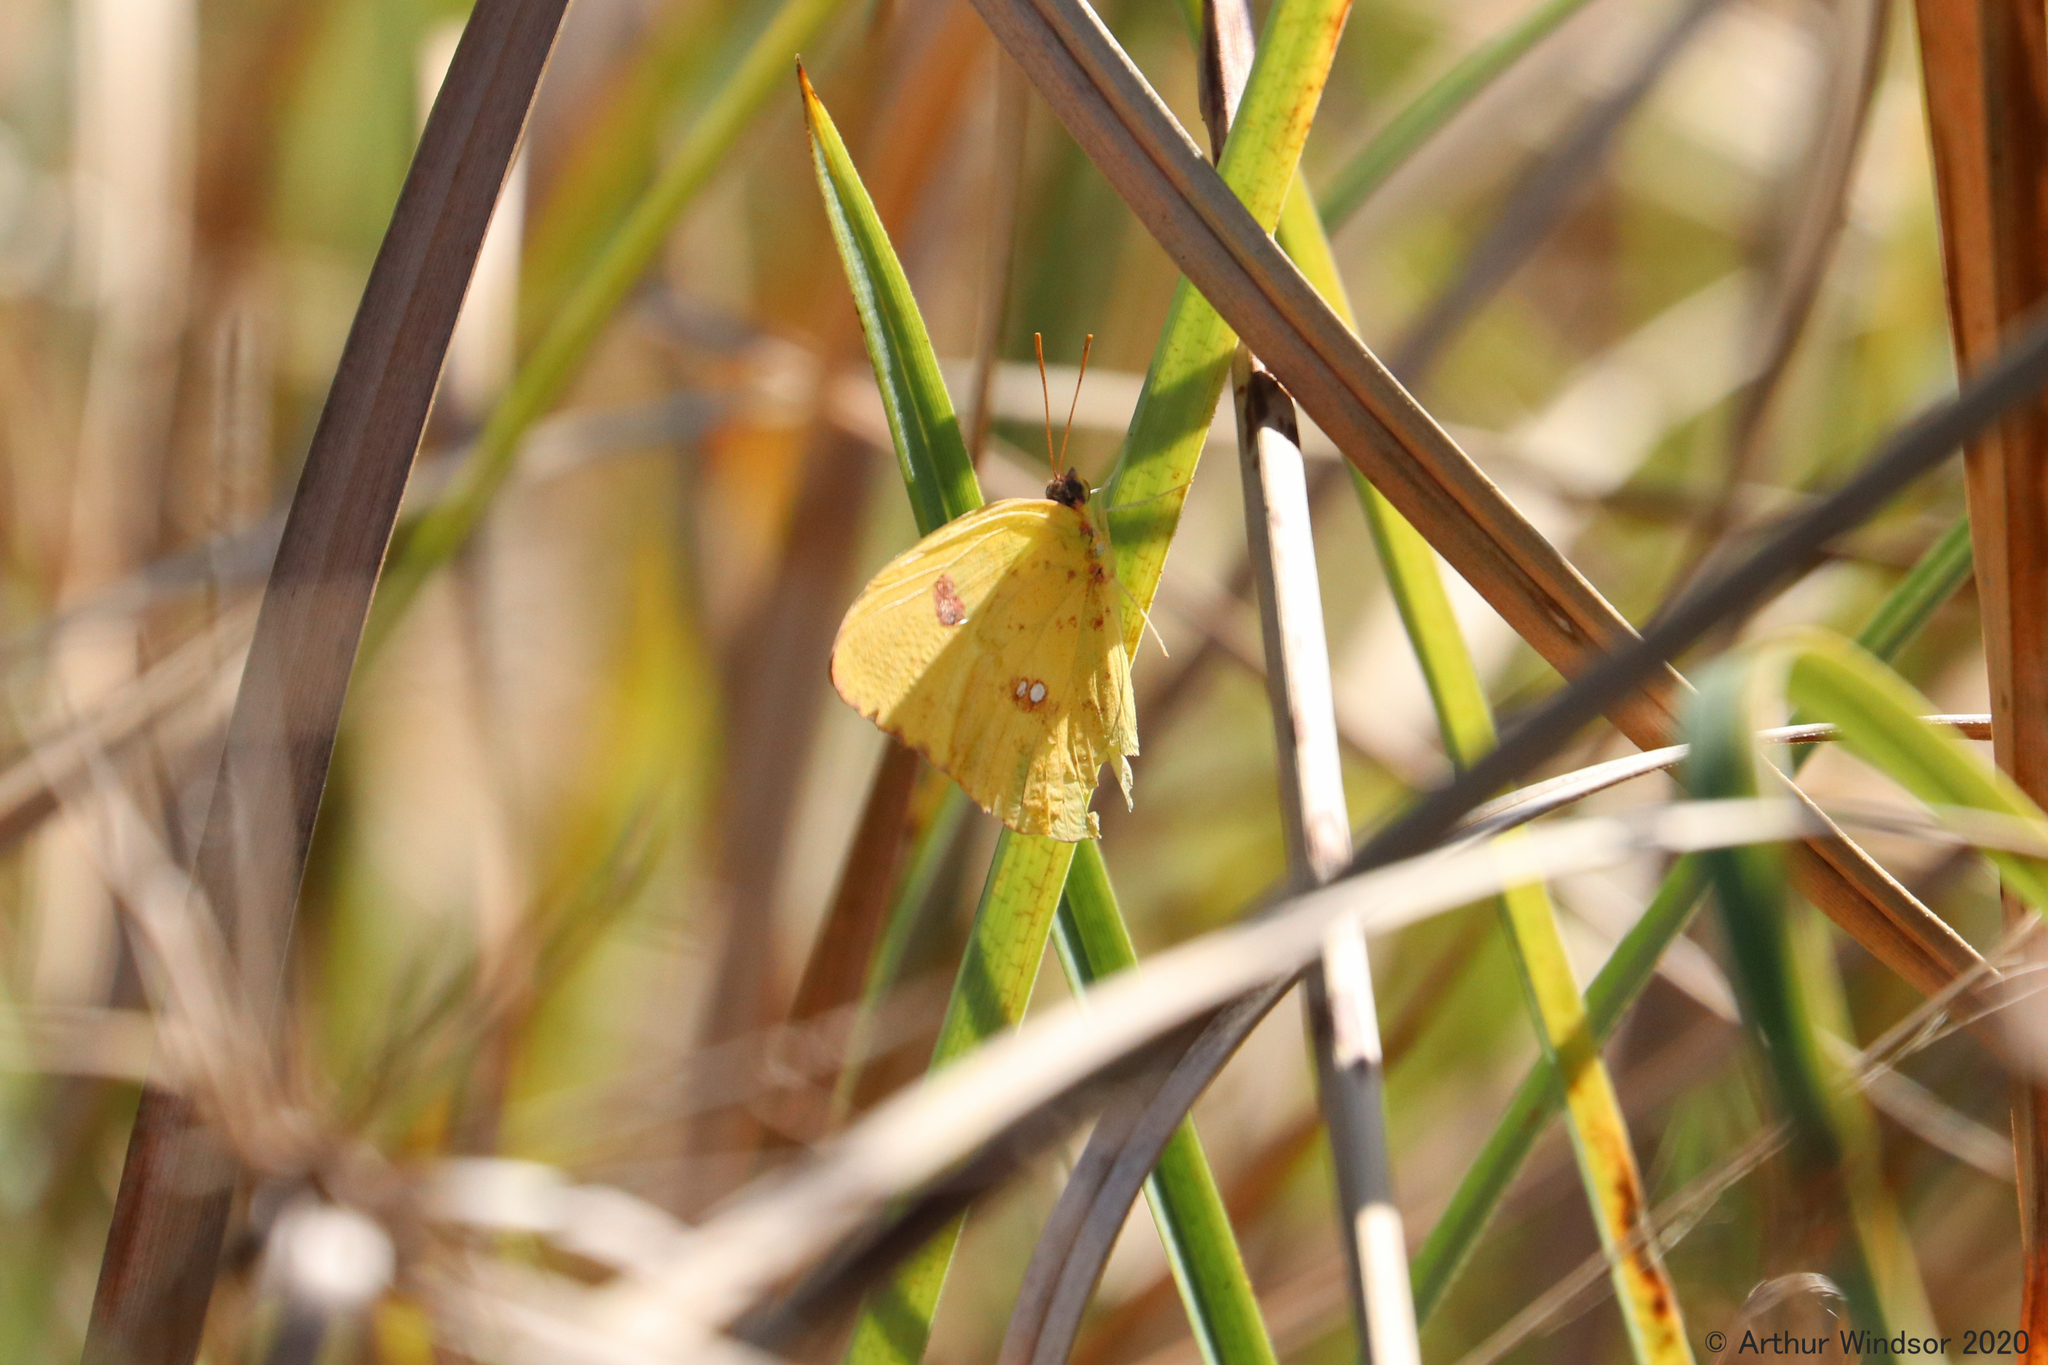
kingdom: Animalia
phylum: Arthropoda
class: Insecta
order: Lepidoptera
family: Pieridae
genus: Phoebis
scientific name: Phoebis sennae
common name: Cloudless sulphur
